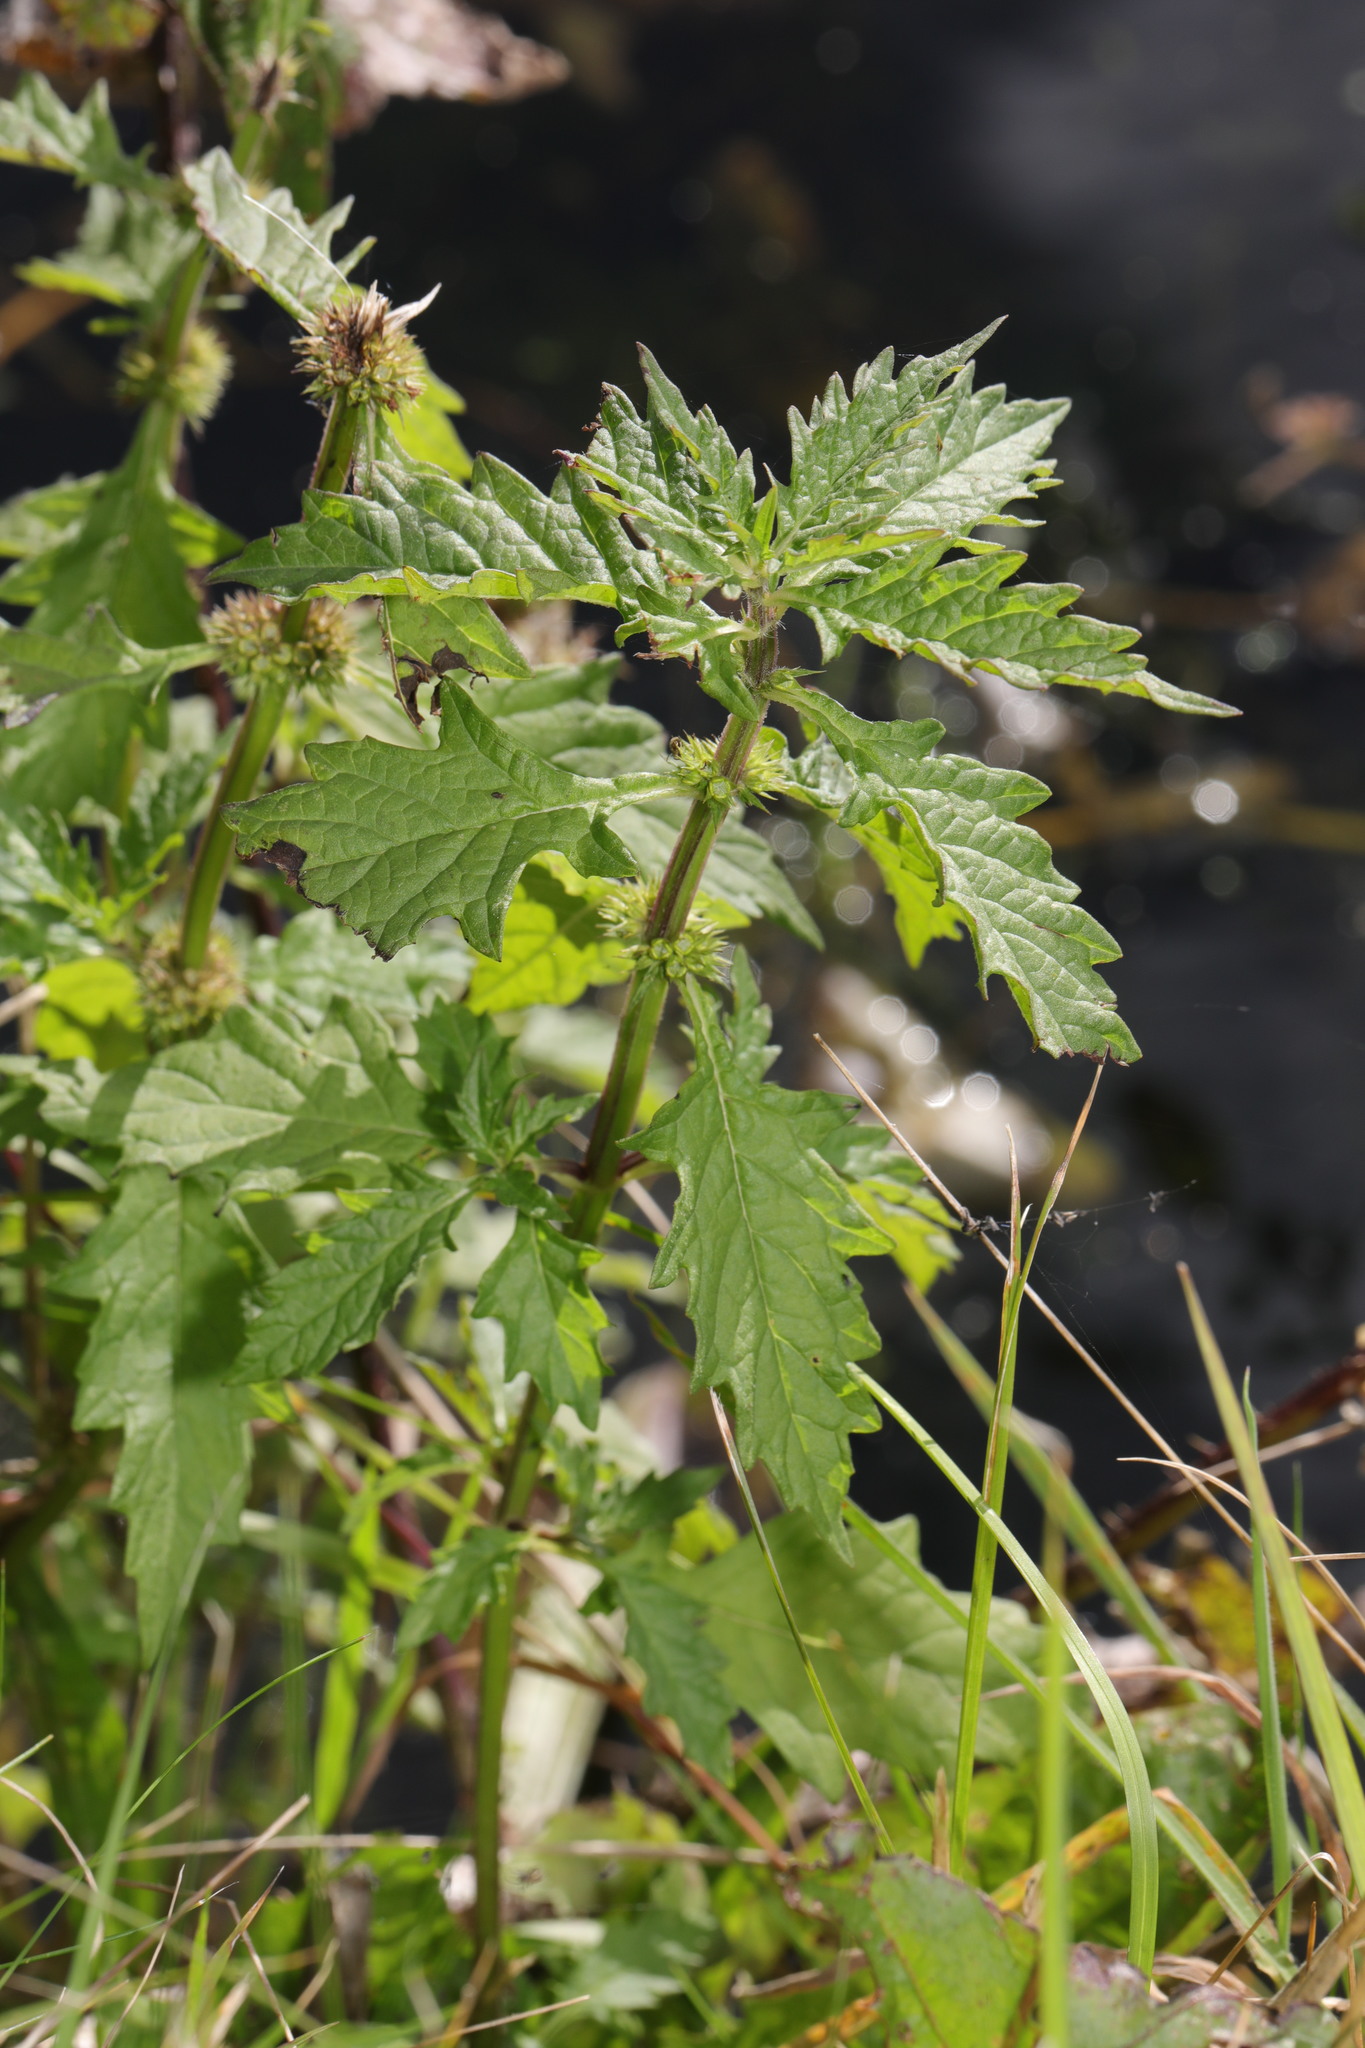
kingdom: Plantae
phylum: Tracheophyta
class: Magnoliopsida
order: Lamiales
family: Lamiaceae
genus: Lycopus
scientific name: Lycopus europaeus
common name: European bugleweed
